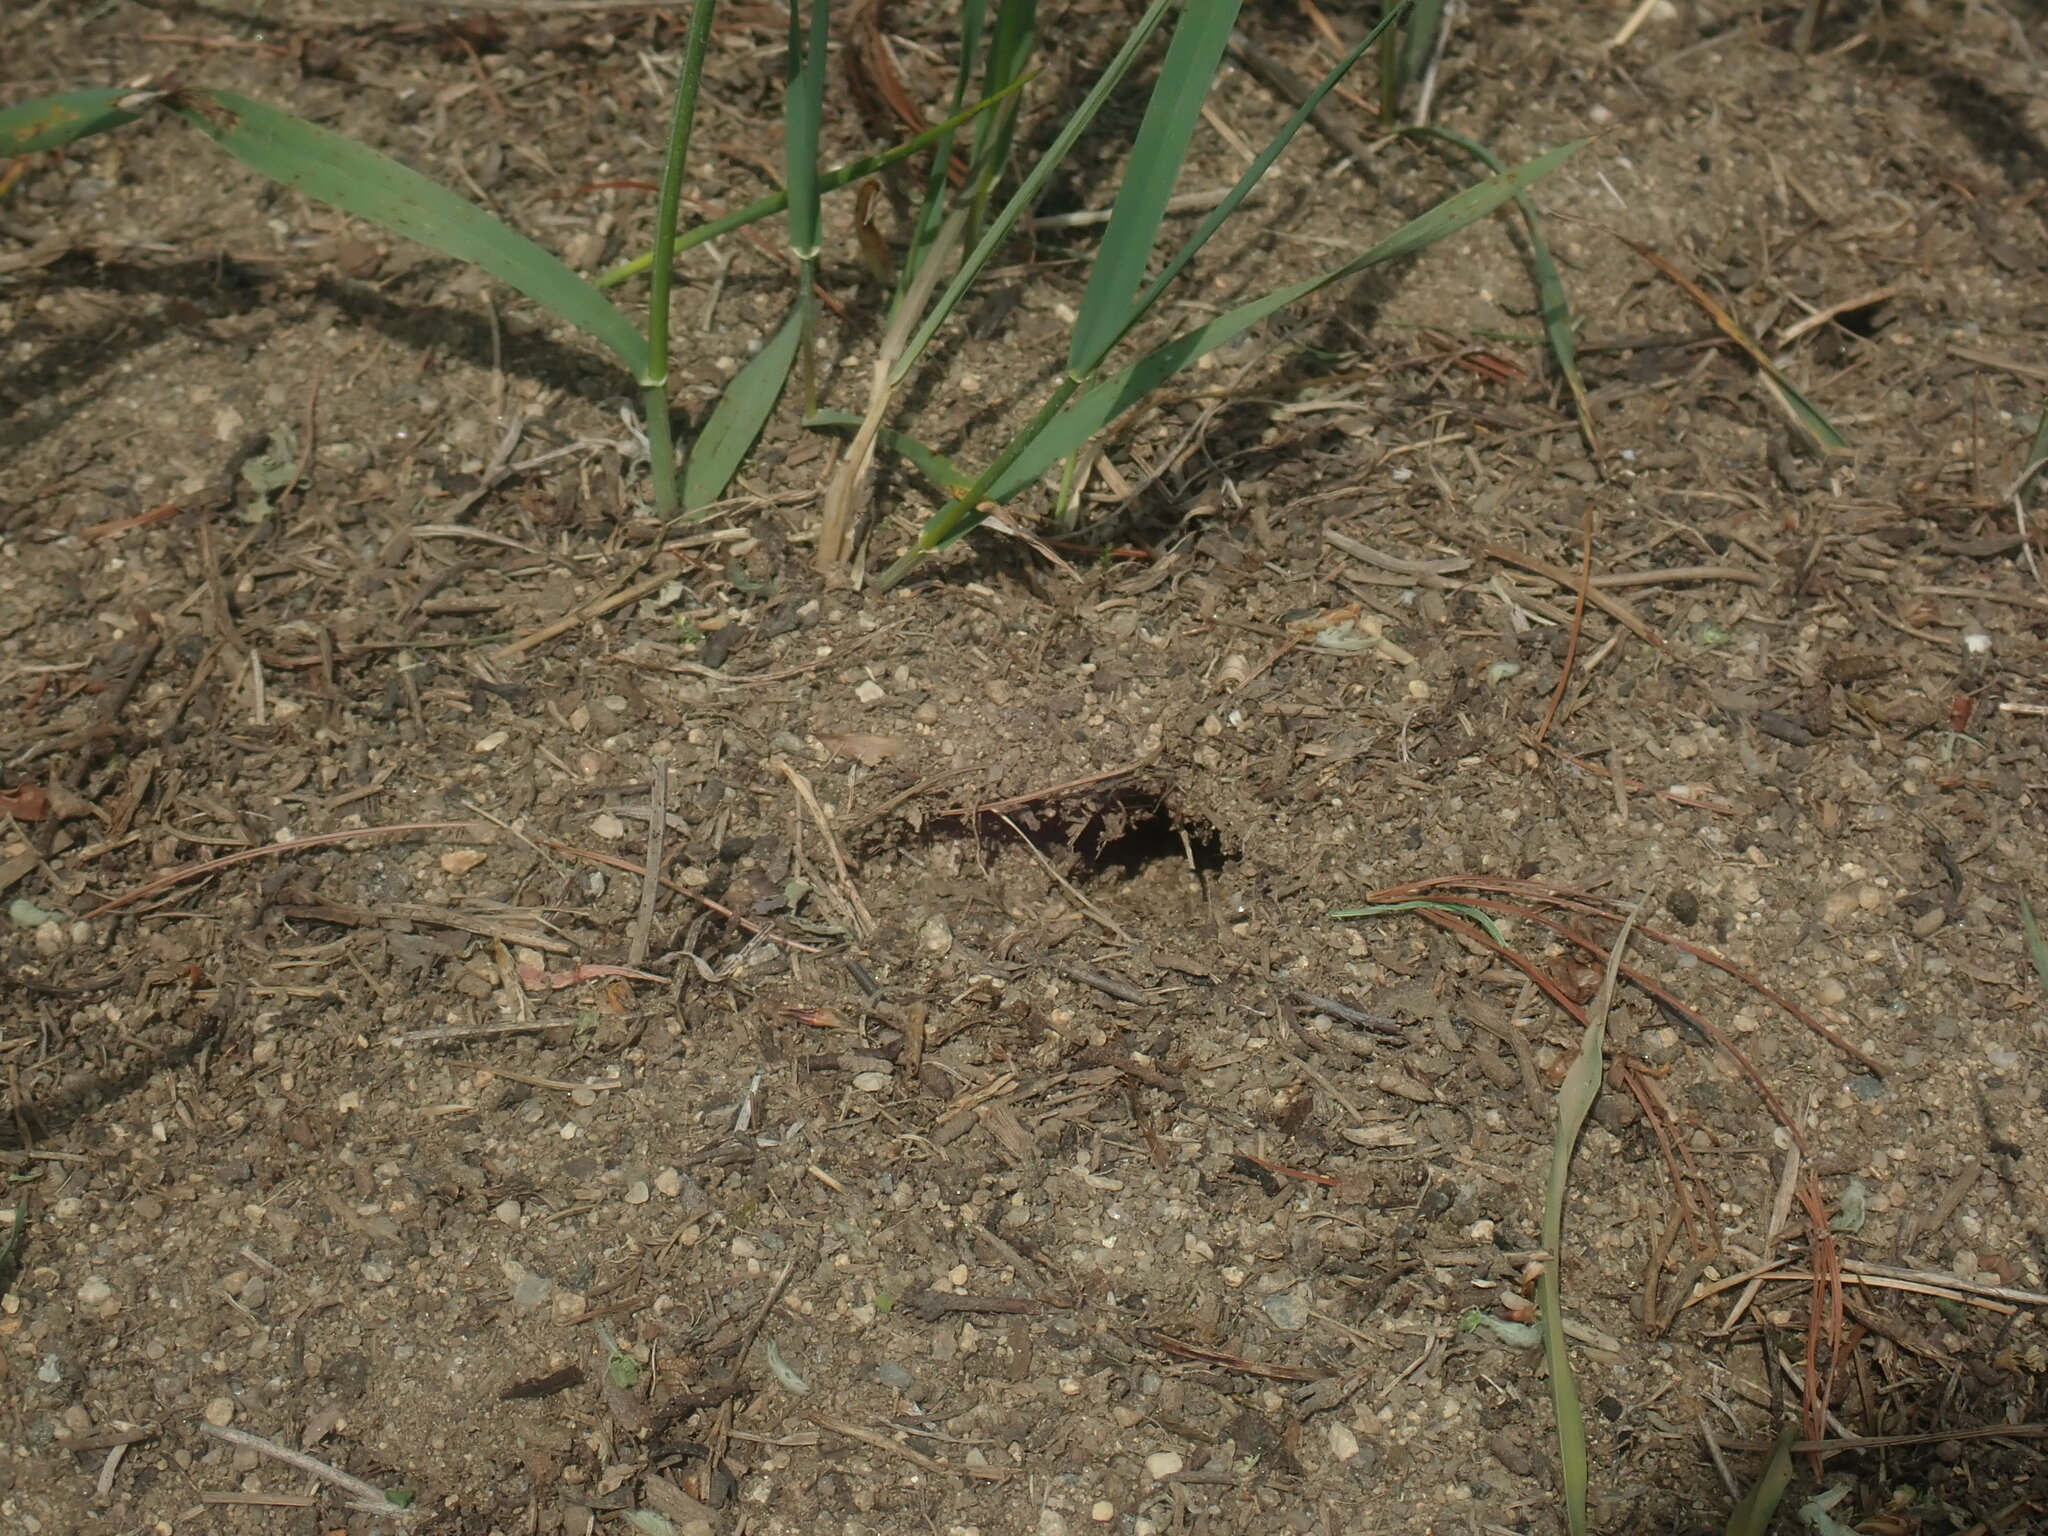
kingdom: Animalia
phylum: Arthropoda
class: Insecta
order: Hymenoptera
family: Formicidae
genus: Formica
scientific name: Formica exsectoides
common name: Allegheny mound ant
